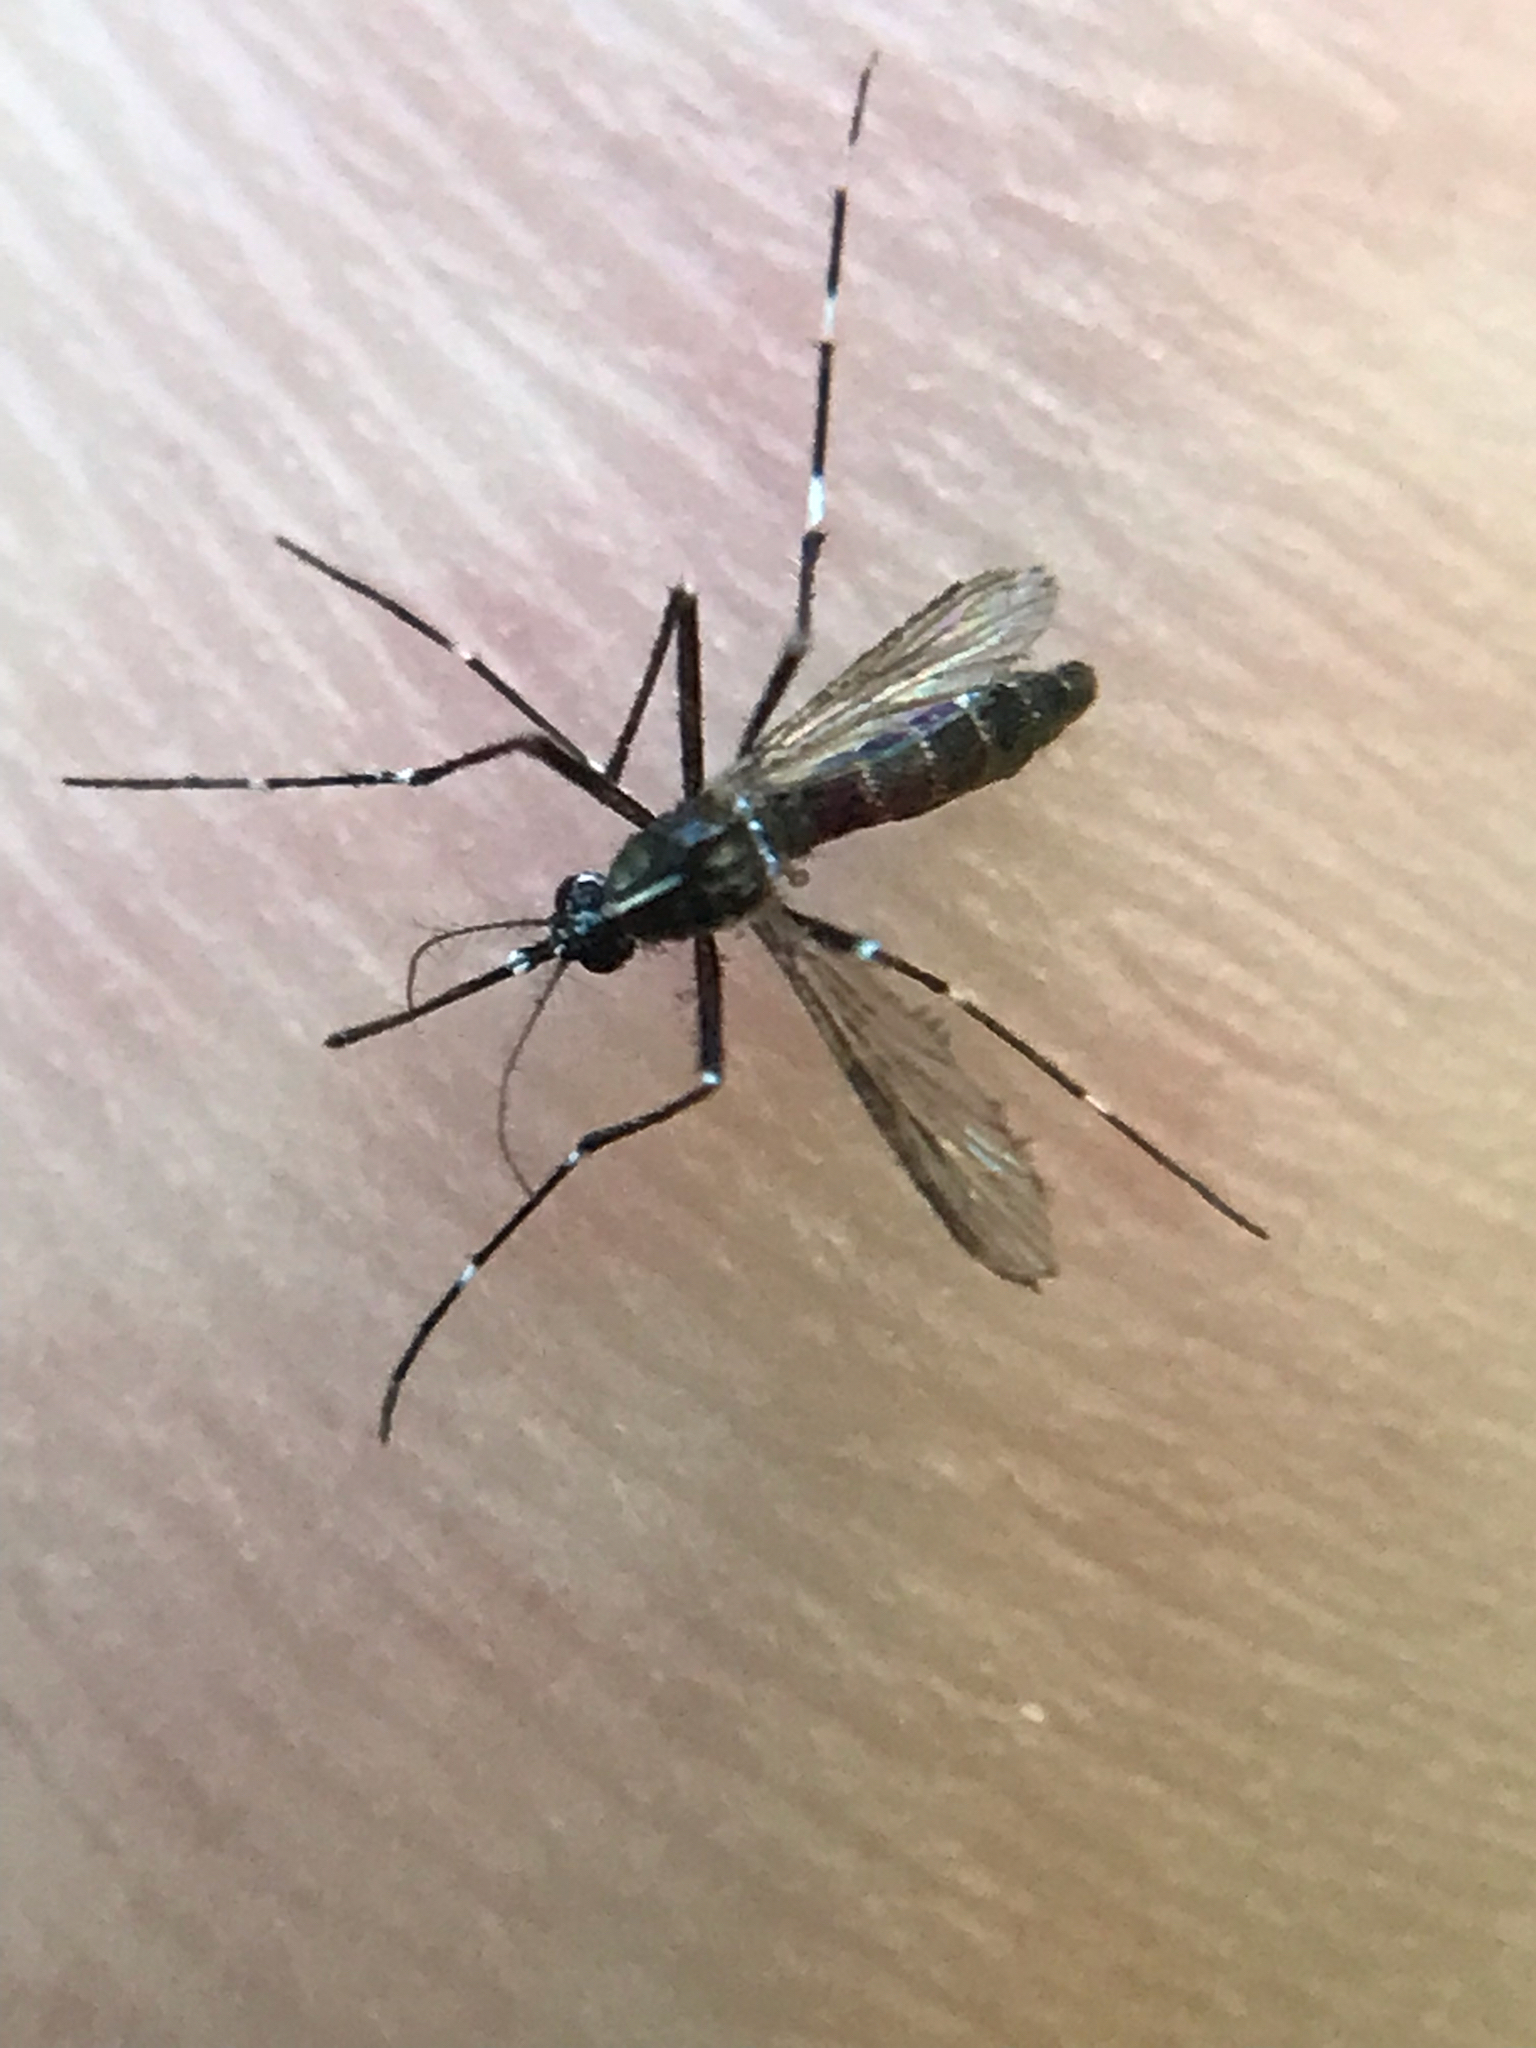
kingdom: Animalia
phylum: Arthropoda
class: Insecta
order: Diptera
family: Culicidae
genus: Aedes
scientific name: Aedes albopictus
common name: Tiger mosquito
